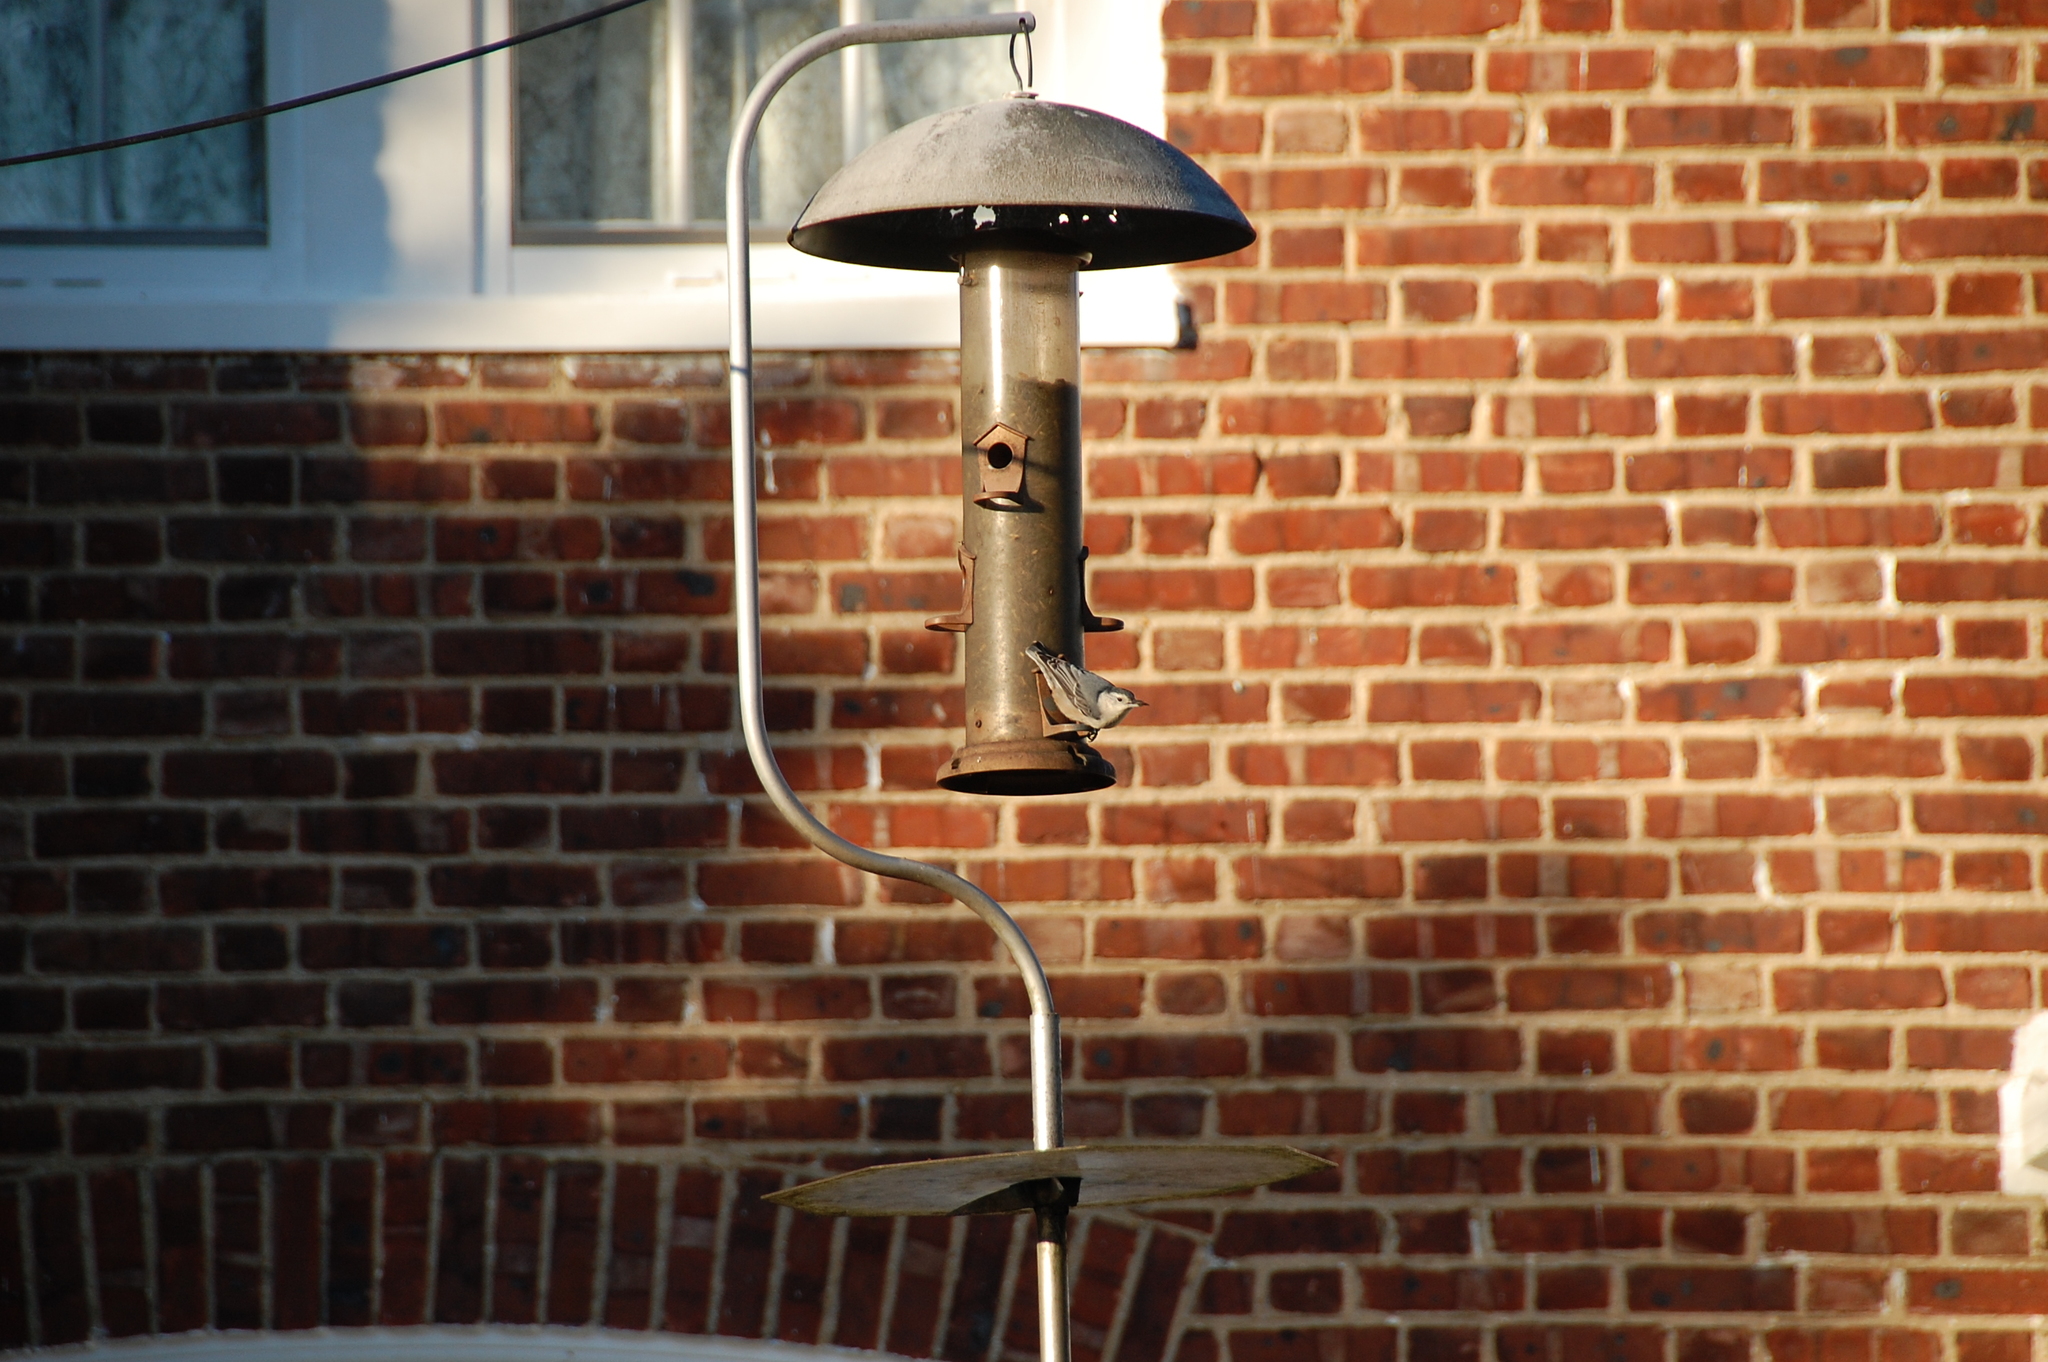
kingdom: Animalia
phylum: Chordata
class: Aves
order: Passeriformes
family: Sittidae
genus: Sitta
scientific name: Sitta carolinensis
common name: White-breasted nuthatch
